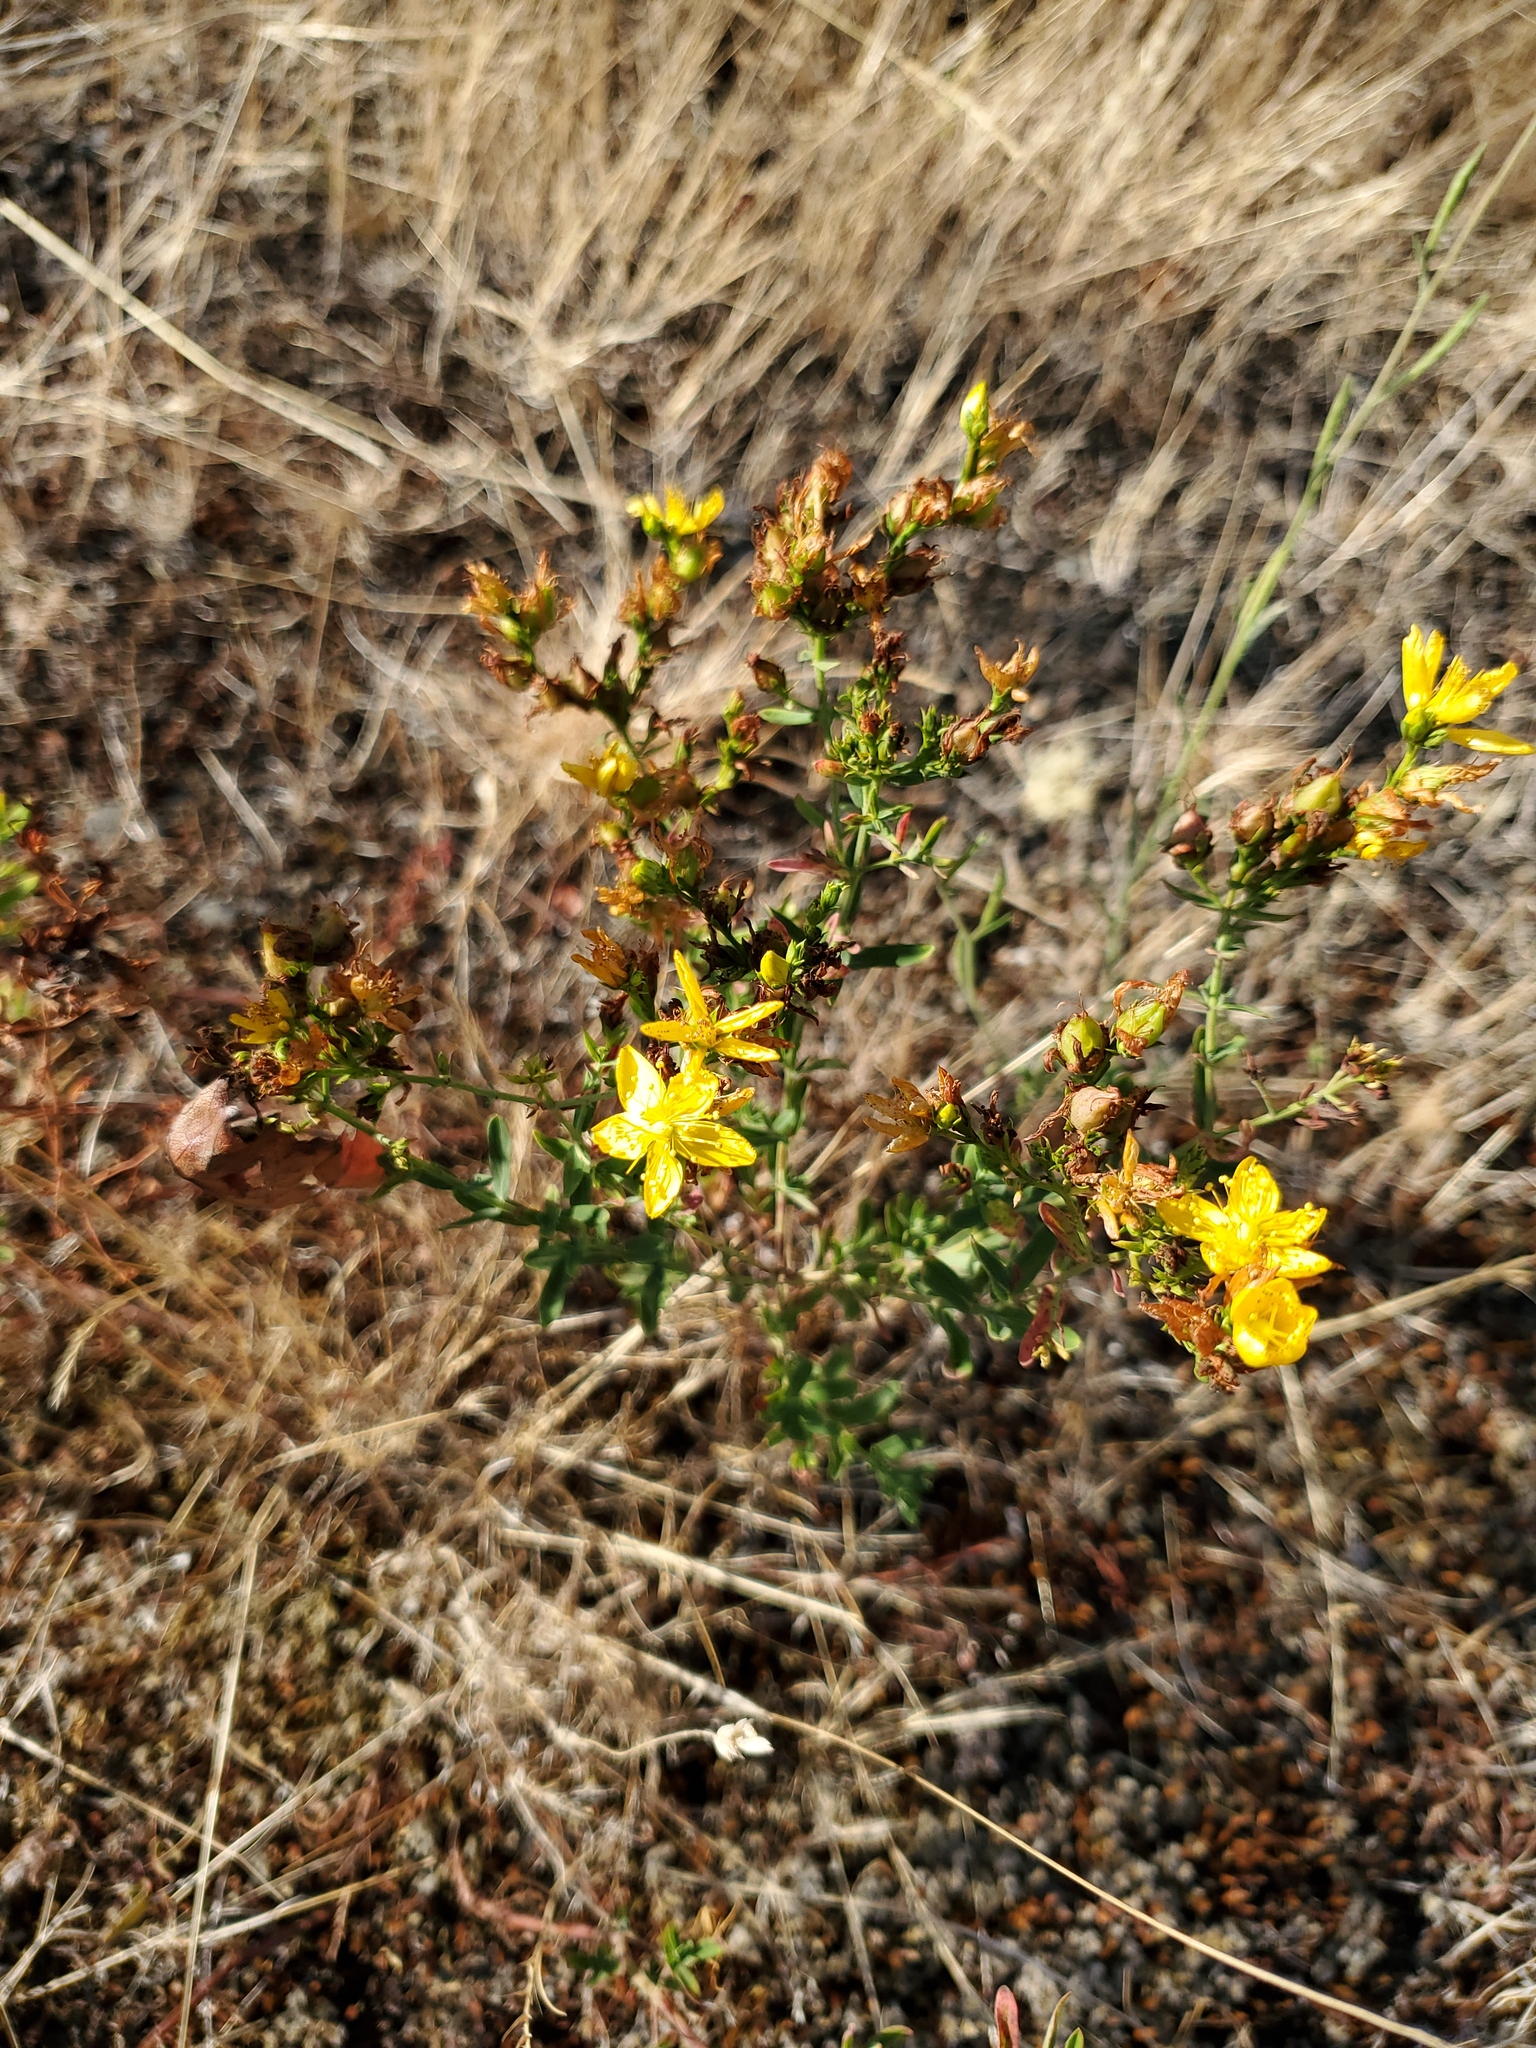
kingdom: Plantae
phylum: Tracheophyta
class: Magnoliopsida
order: Malpighiales
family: Hypericaceae
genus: Hypericum
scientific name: Hypericum perforatum
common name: Common st. johnswort
